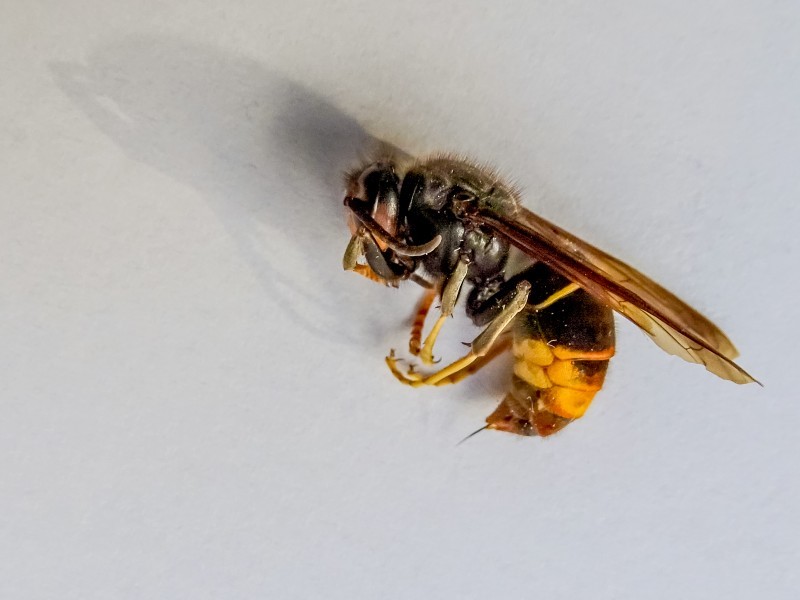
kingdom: Animalia
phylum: Arthropoda
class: Insecta
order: Hymenoptera
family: Vespidae
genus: Vespa
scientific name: Vespa velutina
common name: Asian hornet
